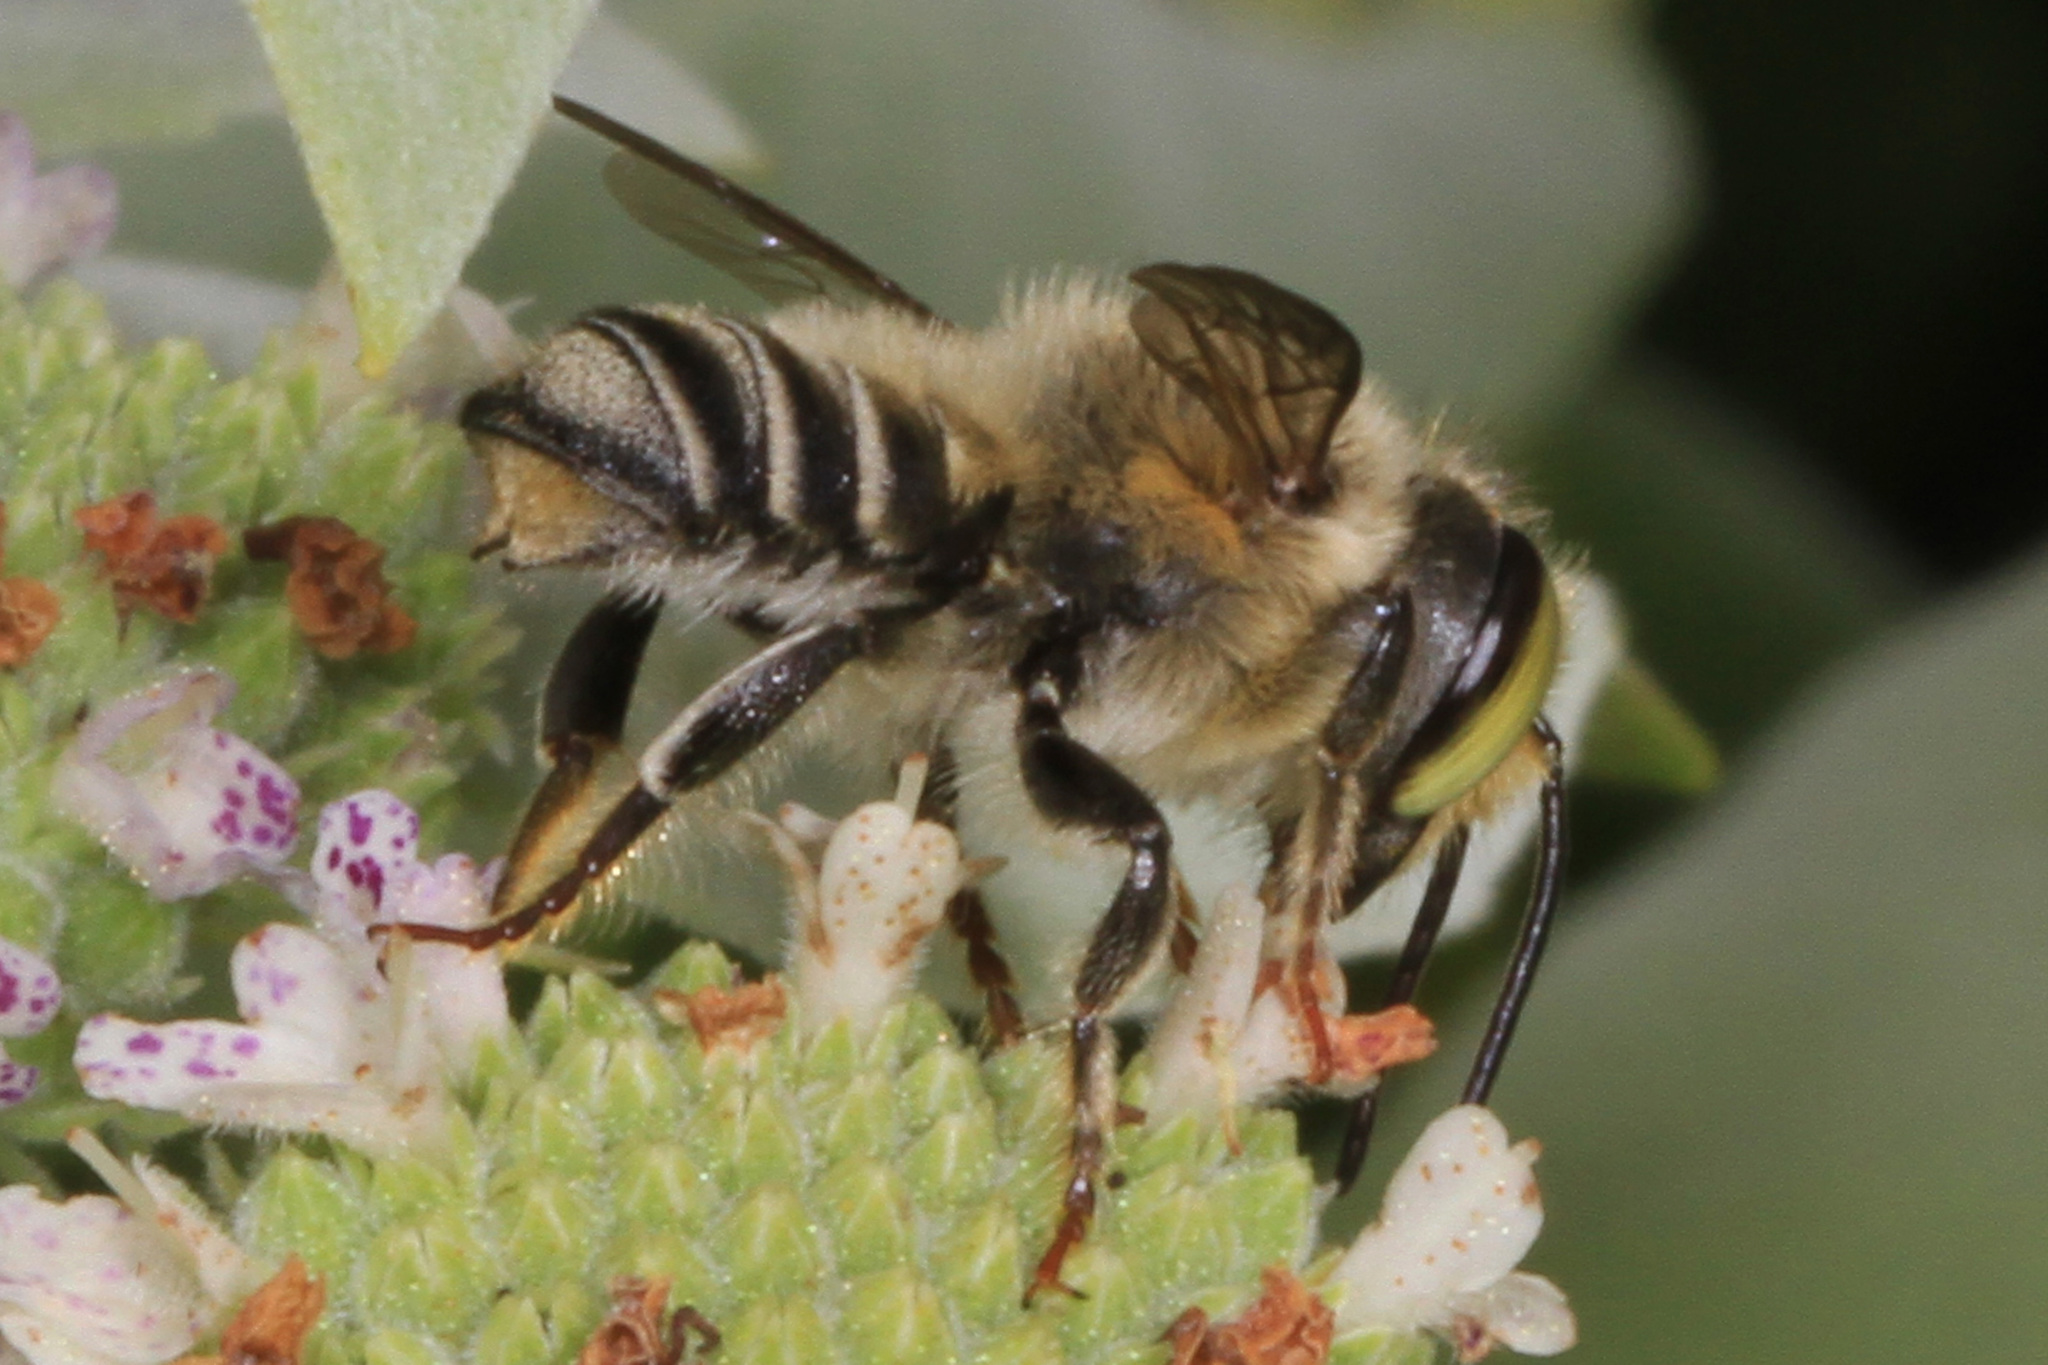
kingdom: Animalia
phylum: Arthropoda
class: Insecta
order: Hymenoptera
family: Megachilidae
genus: Megachile
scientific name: Megachile petulans
